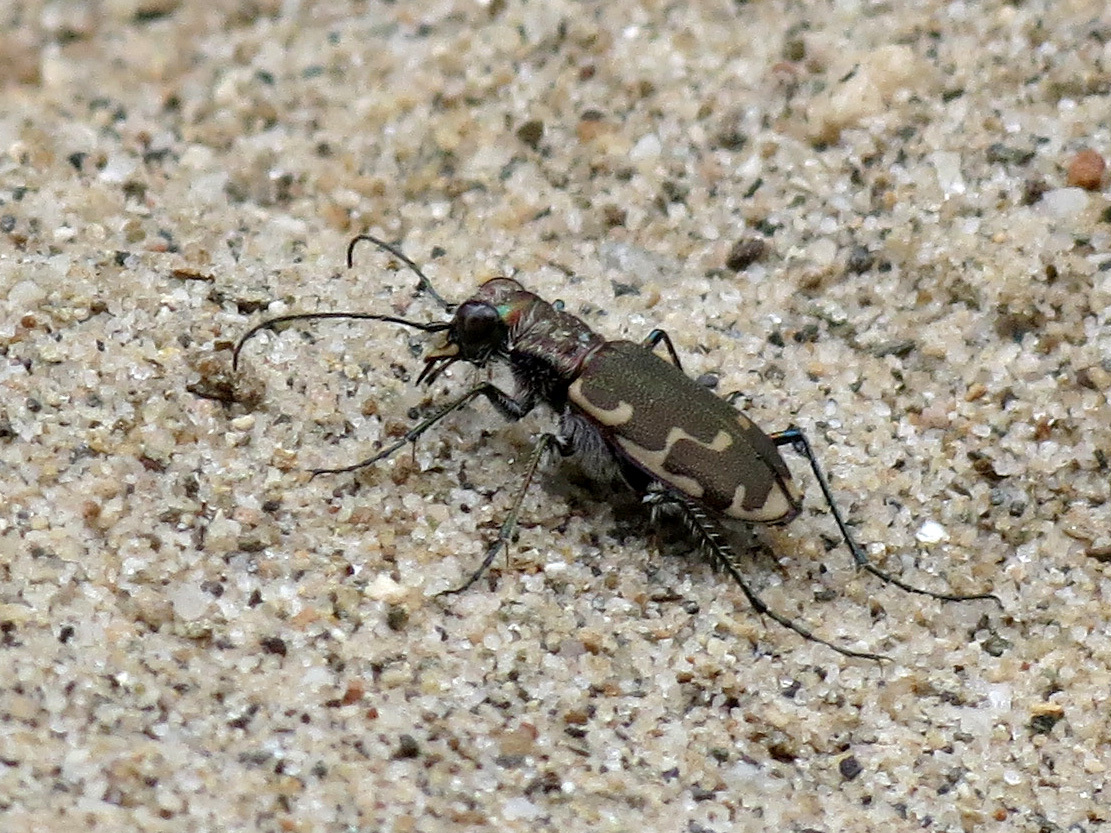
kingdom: Animalia
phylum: Arthropoda
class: Insecta
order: Coleoptera
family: Carabidae
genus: Cicindela
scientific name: Cicindela repanda
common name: Bronzed tiger beetle
